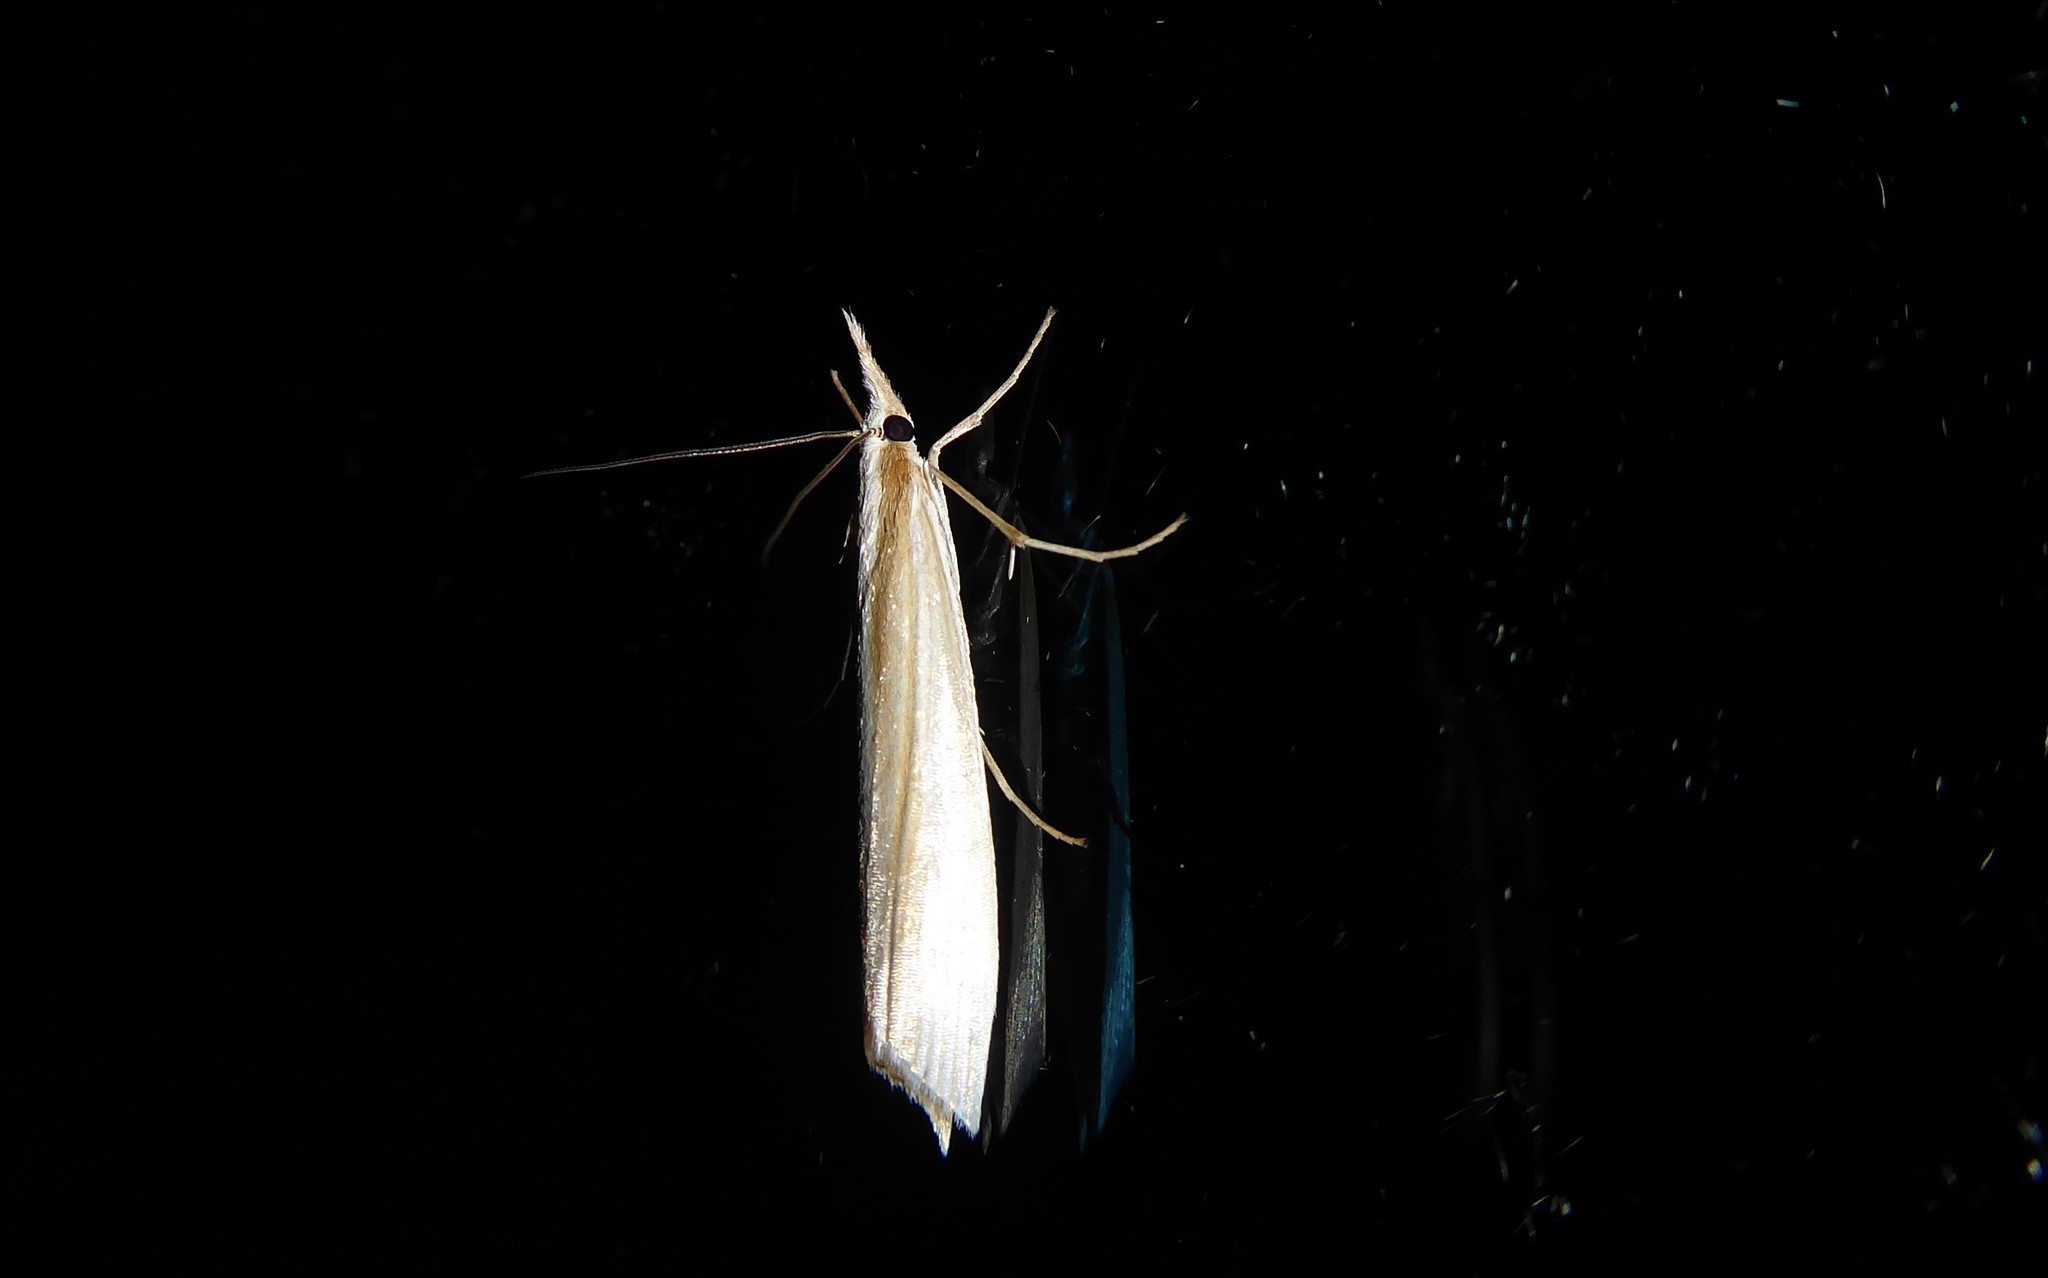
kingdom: Animalia
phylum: Arthropoda
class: Insecta
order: Lepidoptera
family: Crambidae
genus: Orocrambus
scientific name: Orocrambus angustipennis
